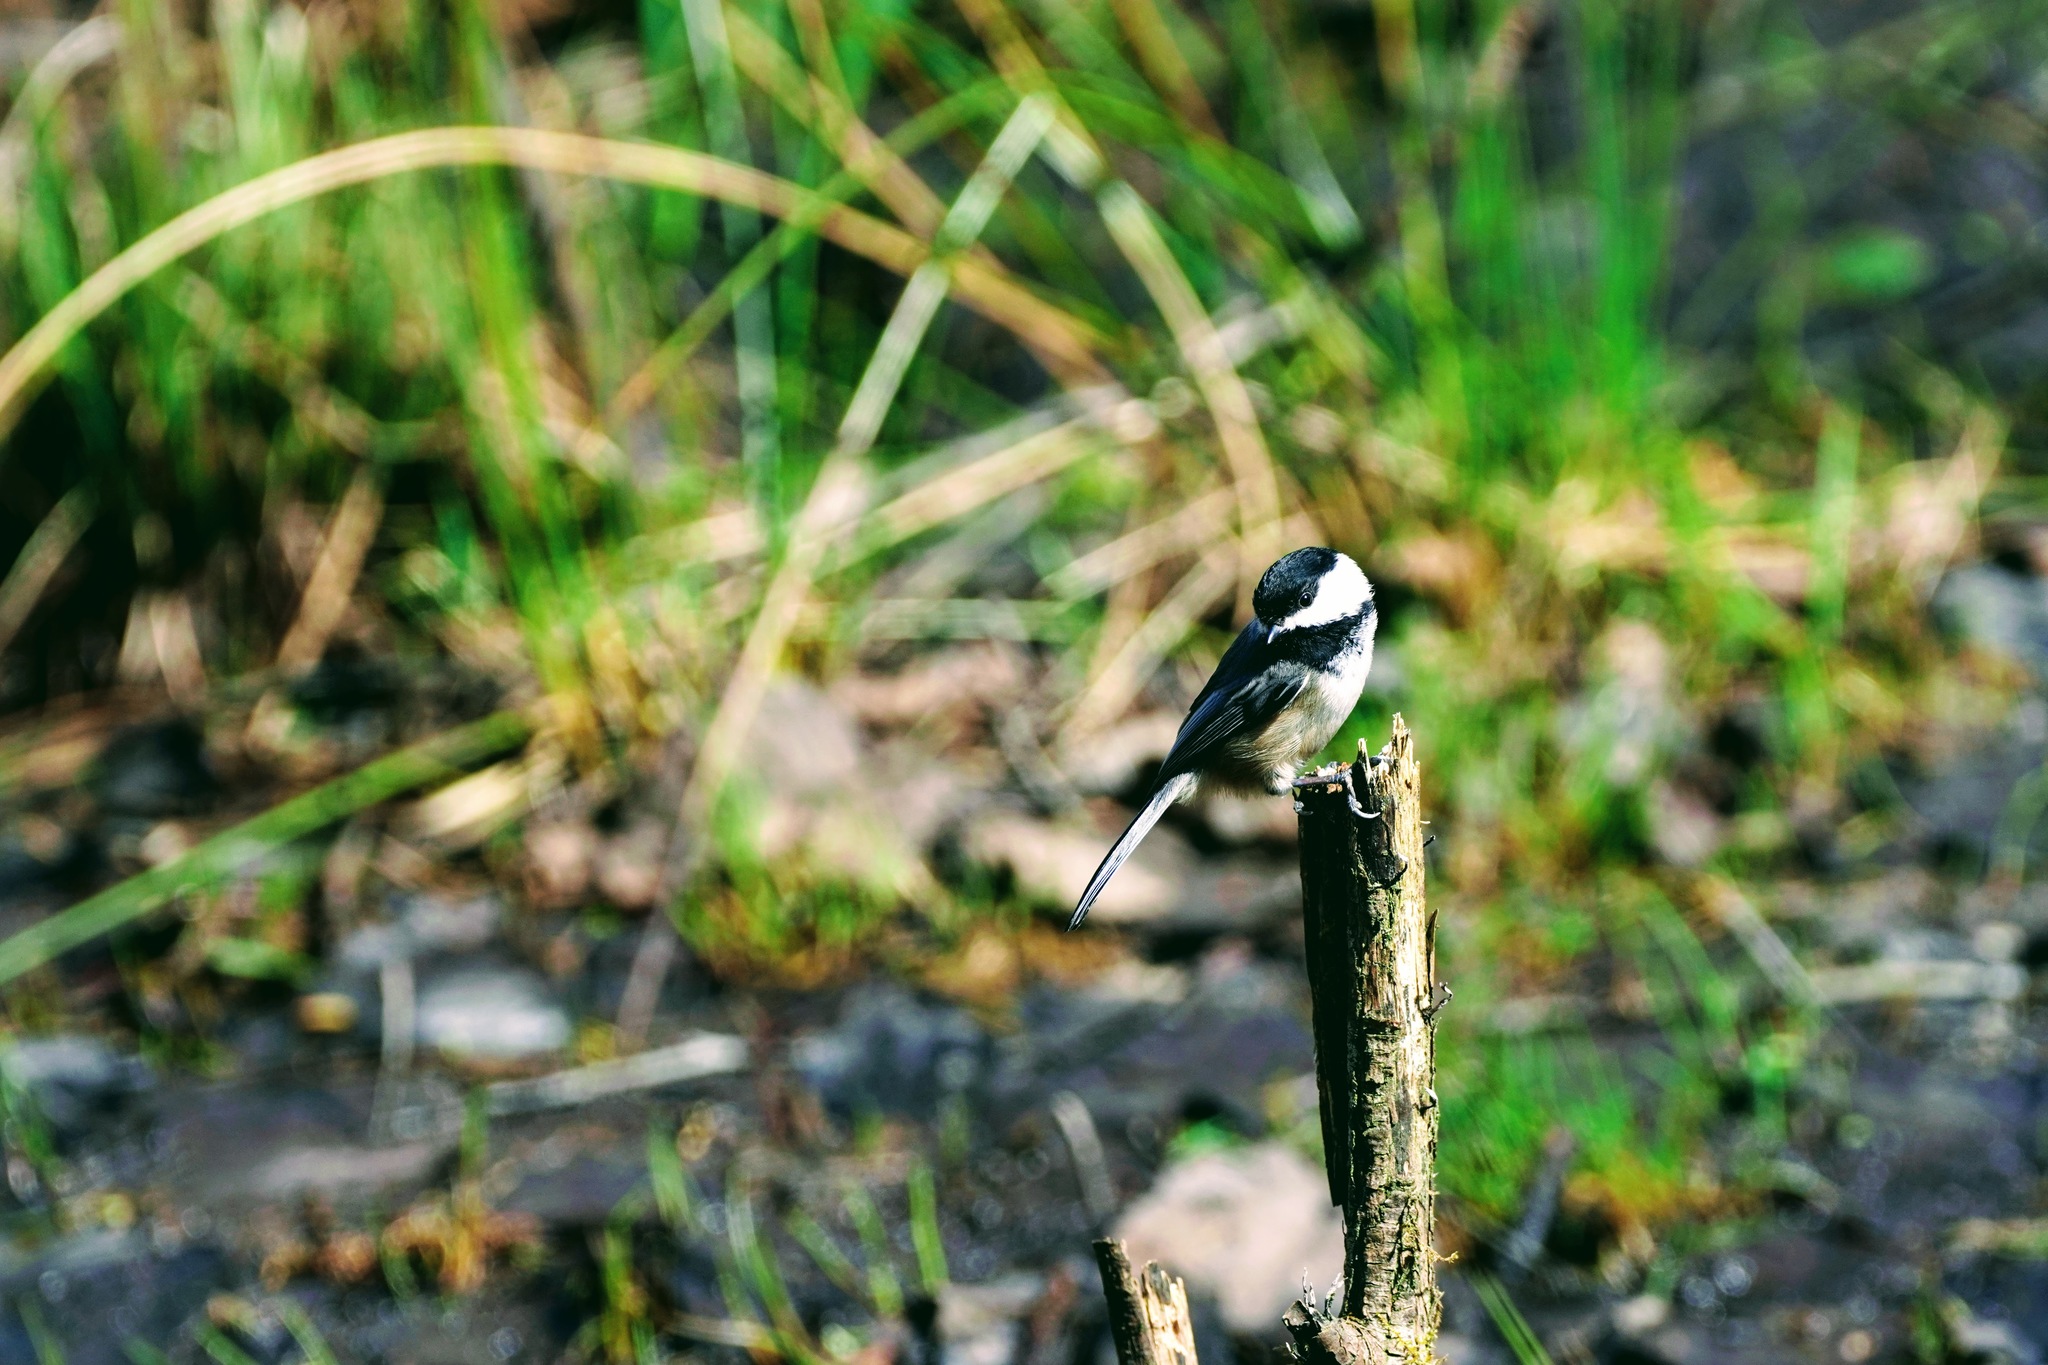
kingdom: Animalia
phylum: Chordata
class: Aves
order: Passeriformes
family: Paridae
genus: Poecile
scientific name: Poecile atricapillus
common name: Black-capped chickadee
